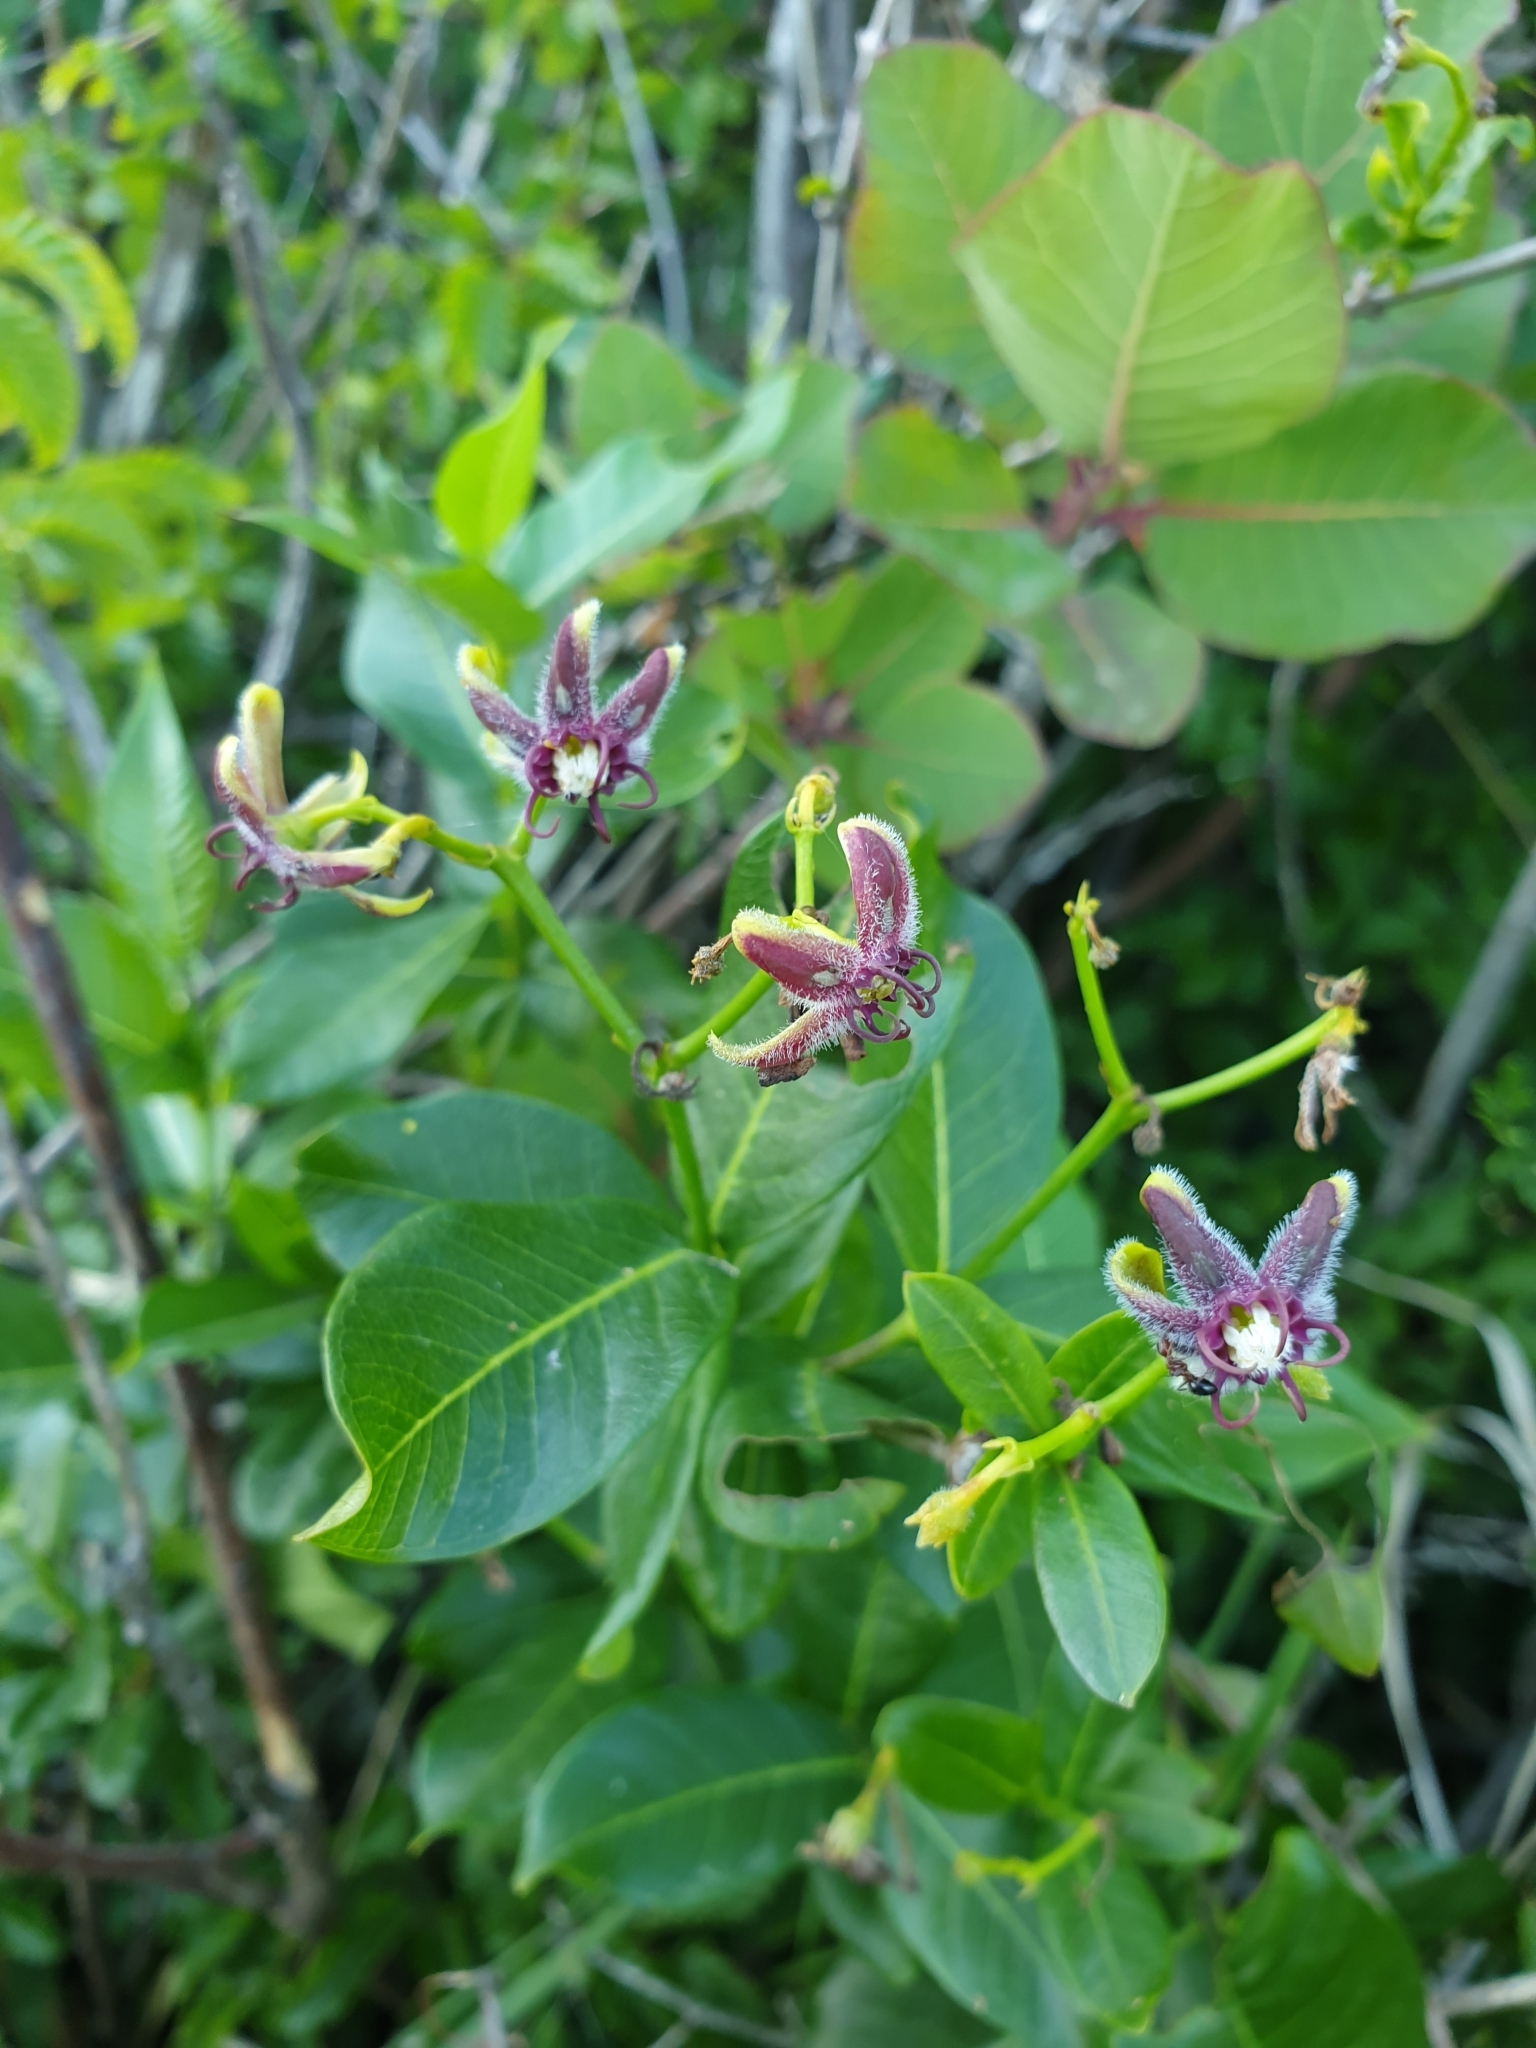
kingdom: Plantae
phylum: Tracheophyta
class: Magnoliopsida
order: Gentianales
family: Apocynaceae
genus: Periploca
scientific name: Periploca graeca
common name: Silkvine
